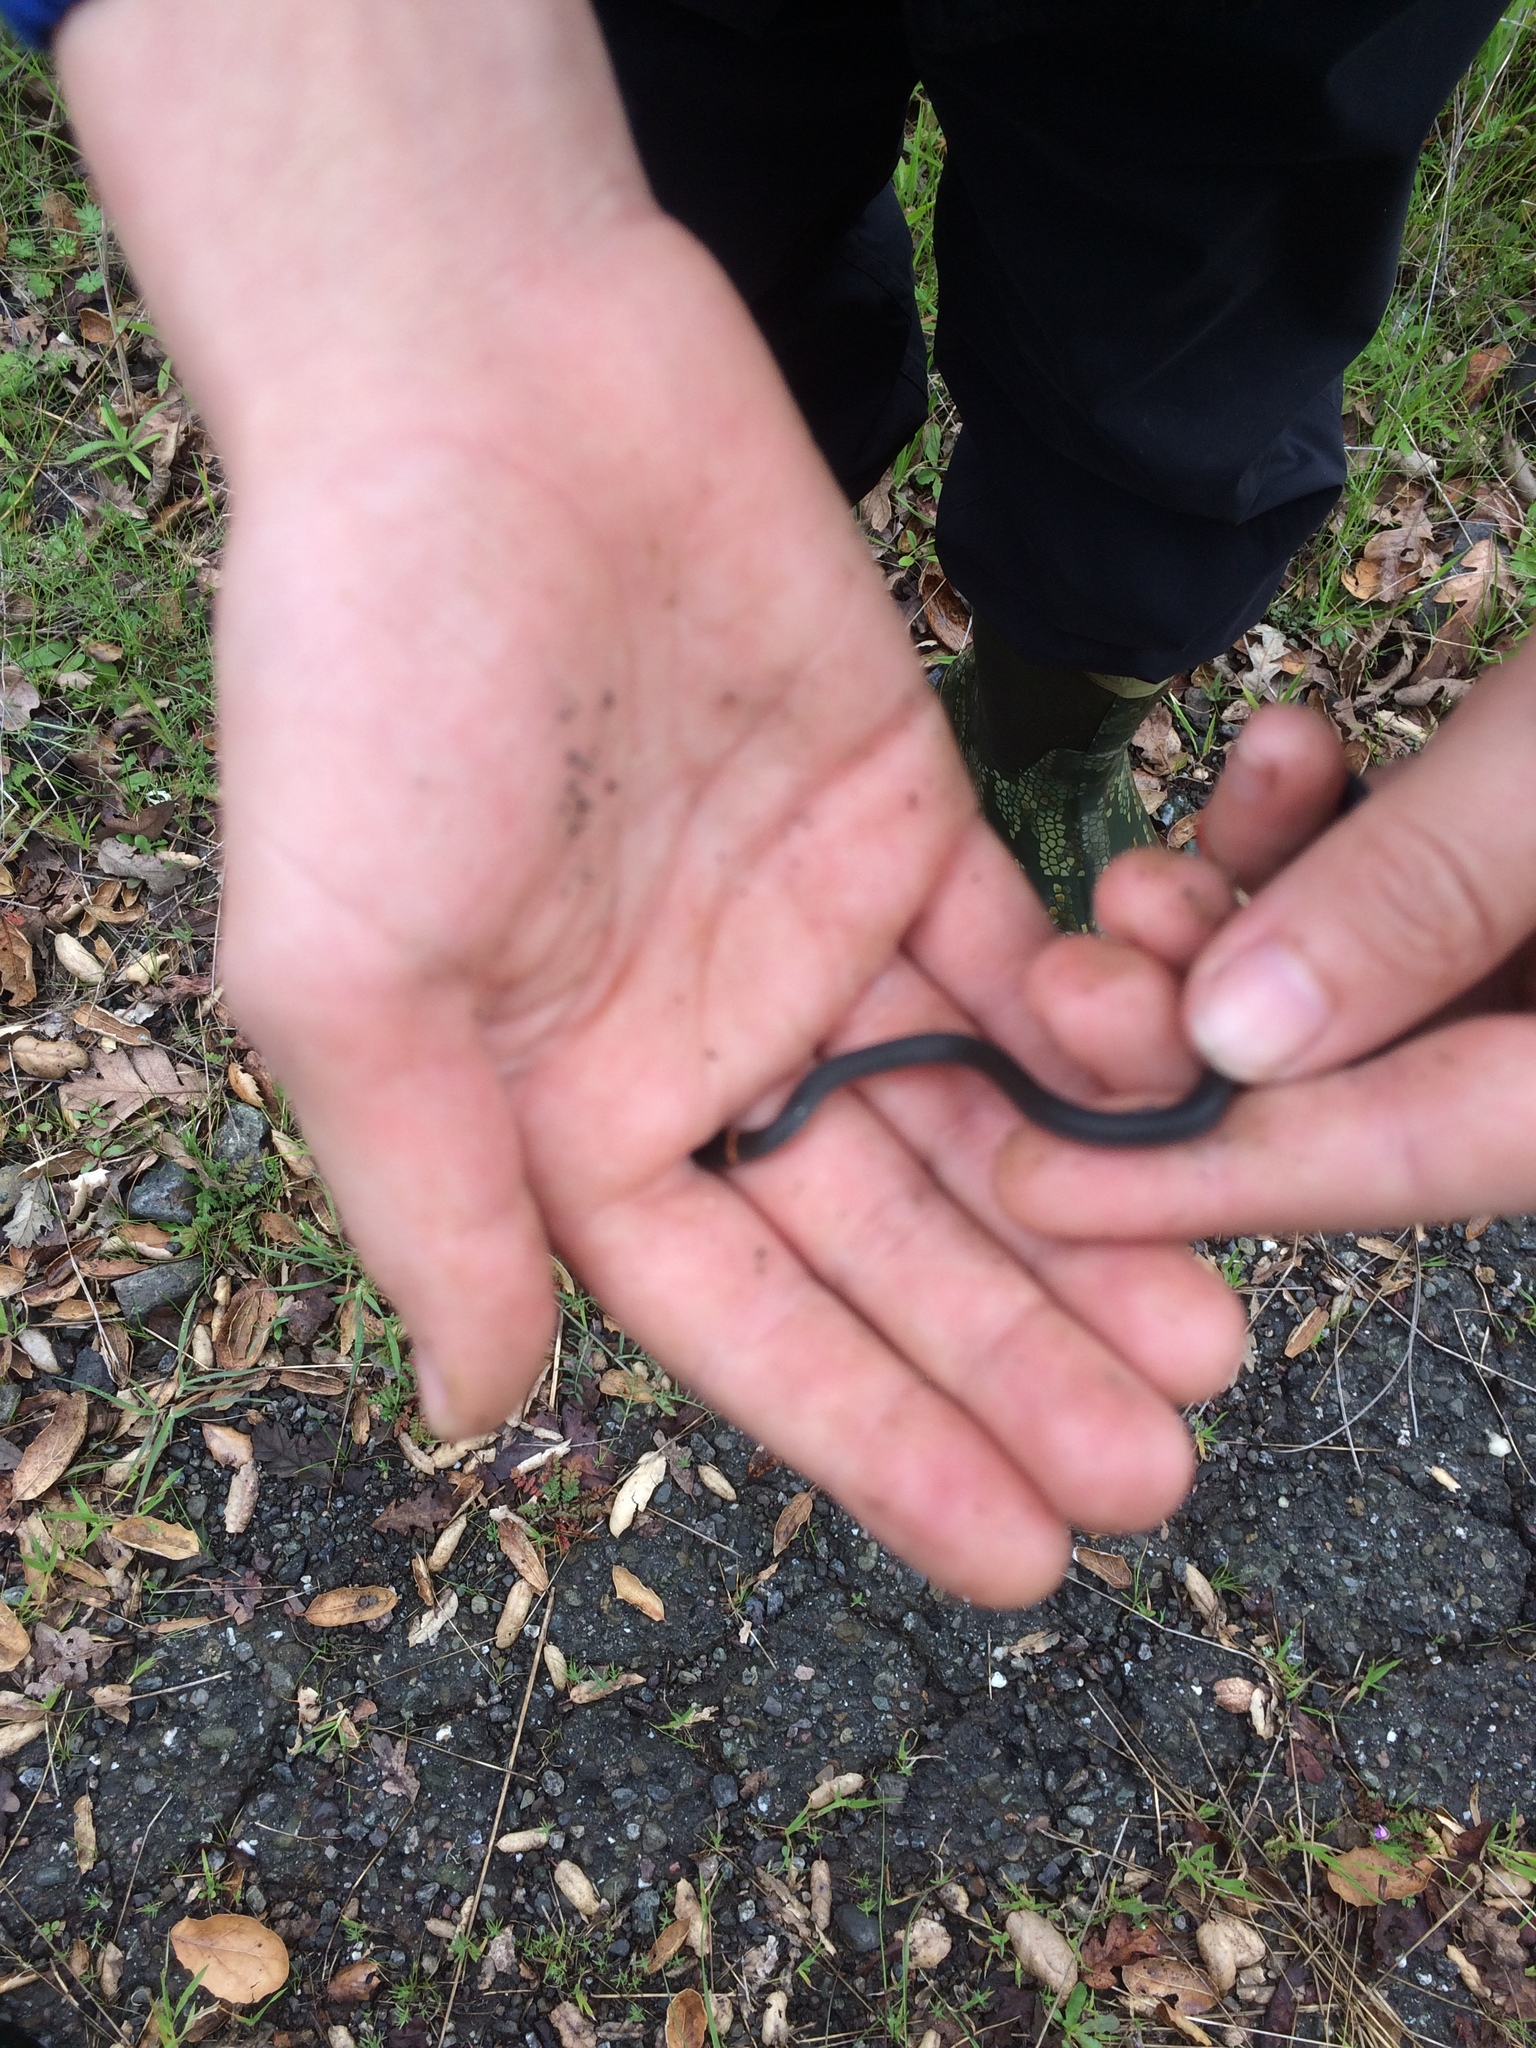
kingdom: Animalia
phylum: Chordata
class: Squamata
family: Colubridae
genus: Diadophis
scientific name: Diadophis punctatus
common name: Ringneck snake
